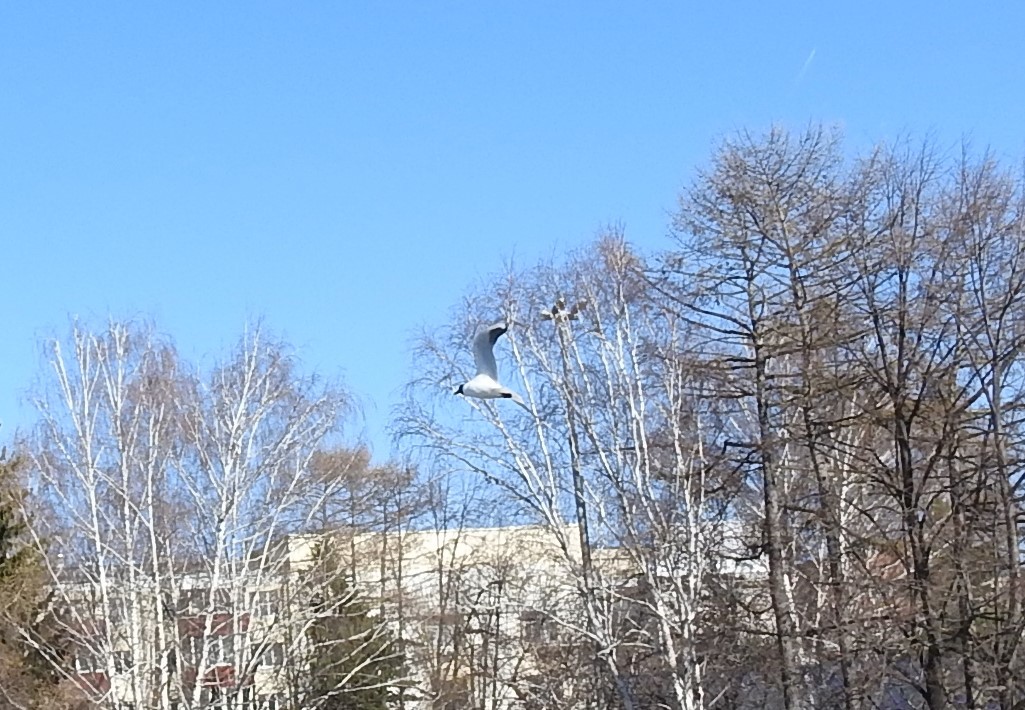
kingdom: Animalia
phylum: Chordata
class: Aves
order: Charadriiformes
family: Laridae
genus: Chroicocephalus
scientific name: Chroicocephalus ridibundus
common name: Black-headed gull
